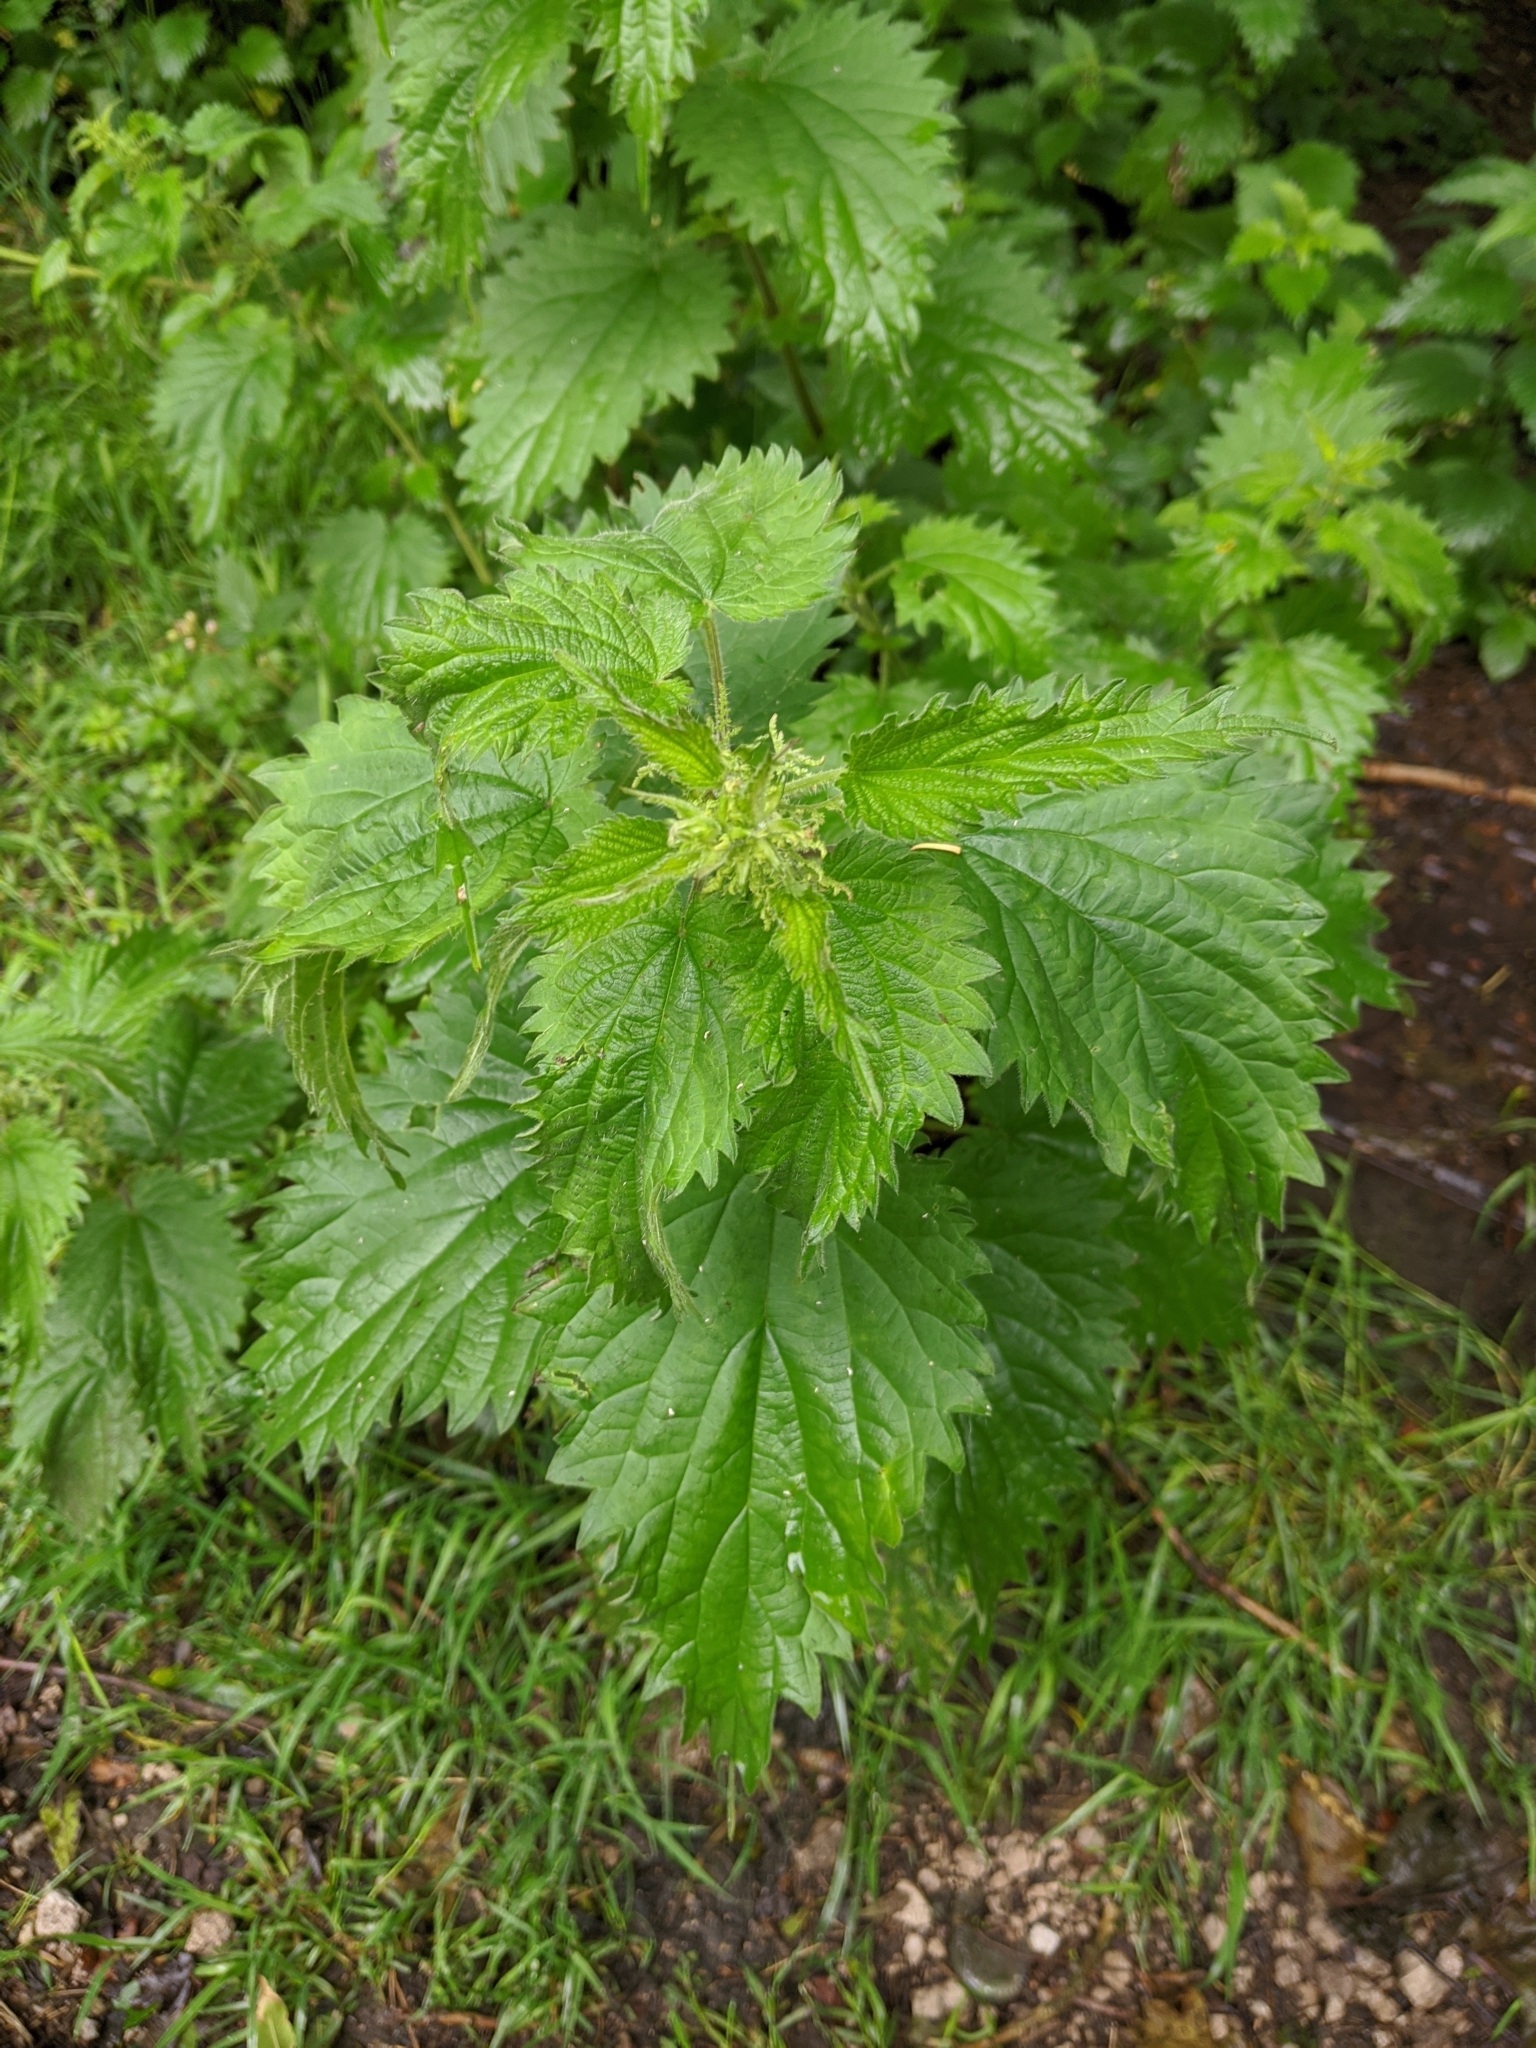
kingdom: Plantae
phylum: Tracheophyta
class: Magnoliopsida
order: Rosales
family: Urticaceae
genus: Urtica
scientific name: Urtica dioica
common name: Common nettle
